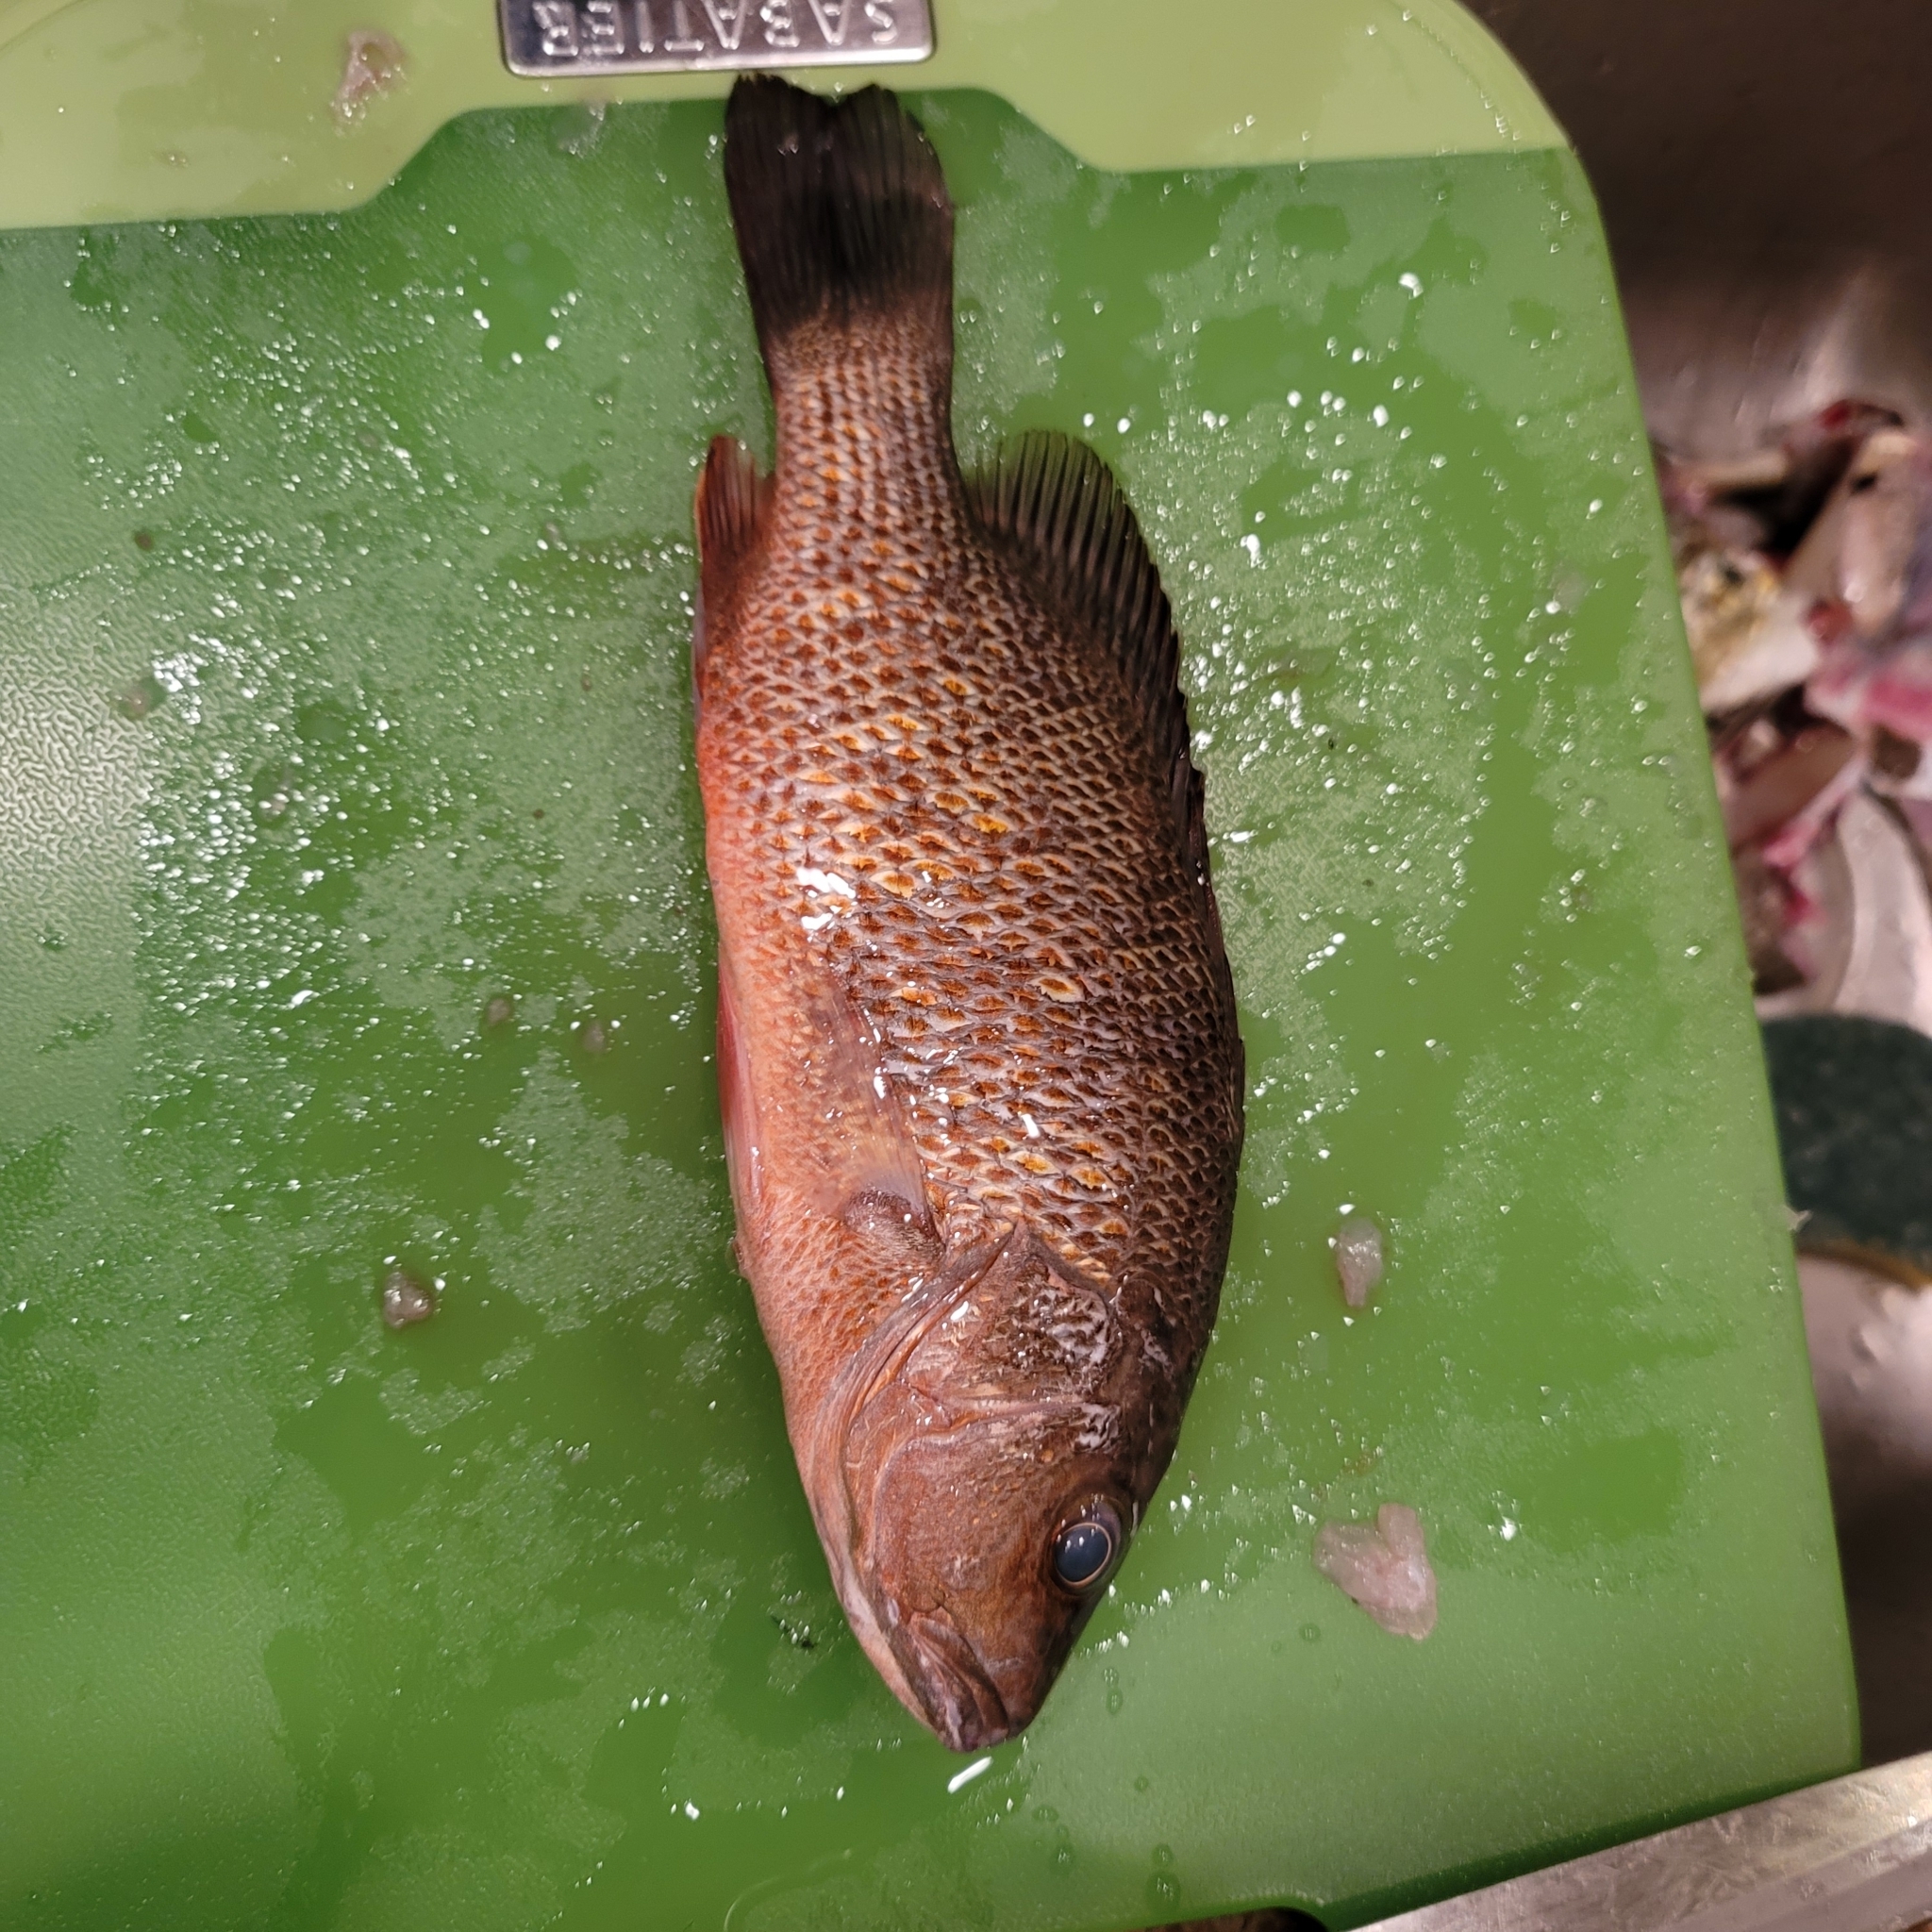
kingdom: Animalia
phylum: Chordata
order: Perciformes
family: Lutjanidae
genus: Lutjanus
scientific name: Lutjanus griseus
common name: Gray snapper
